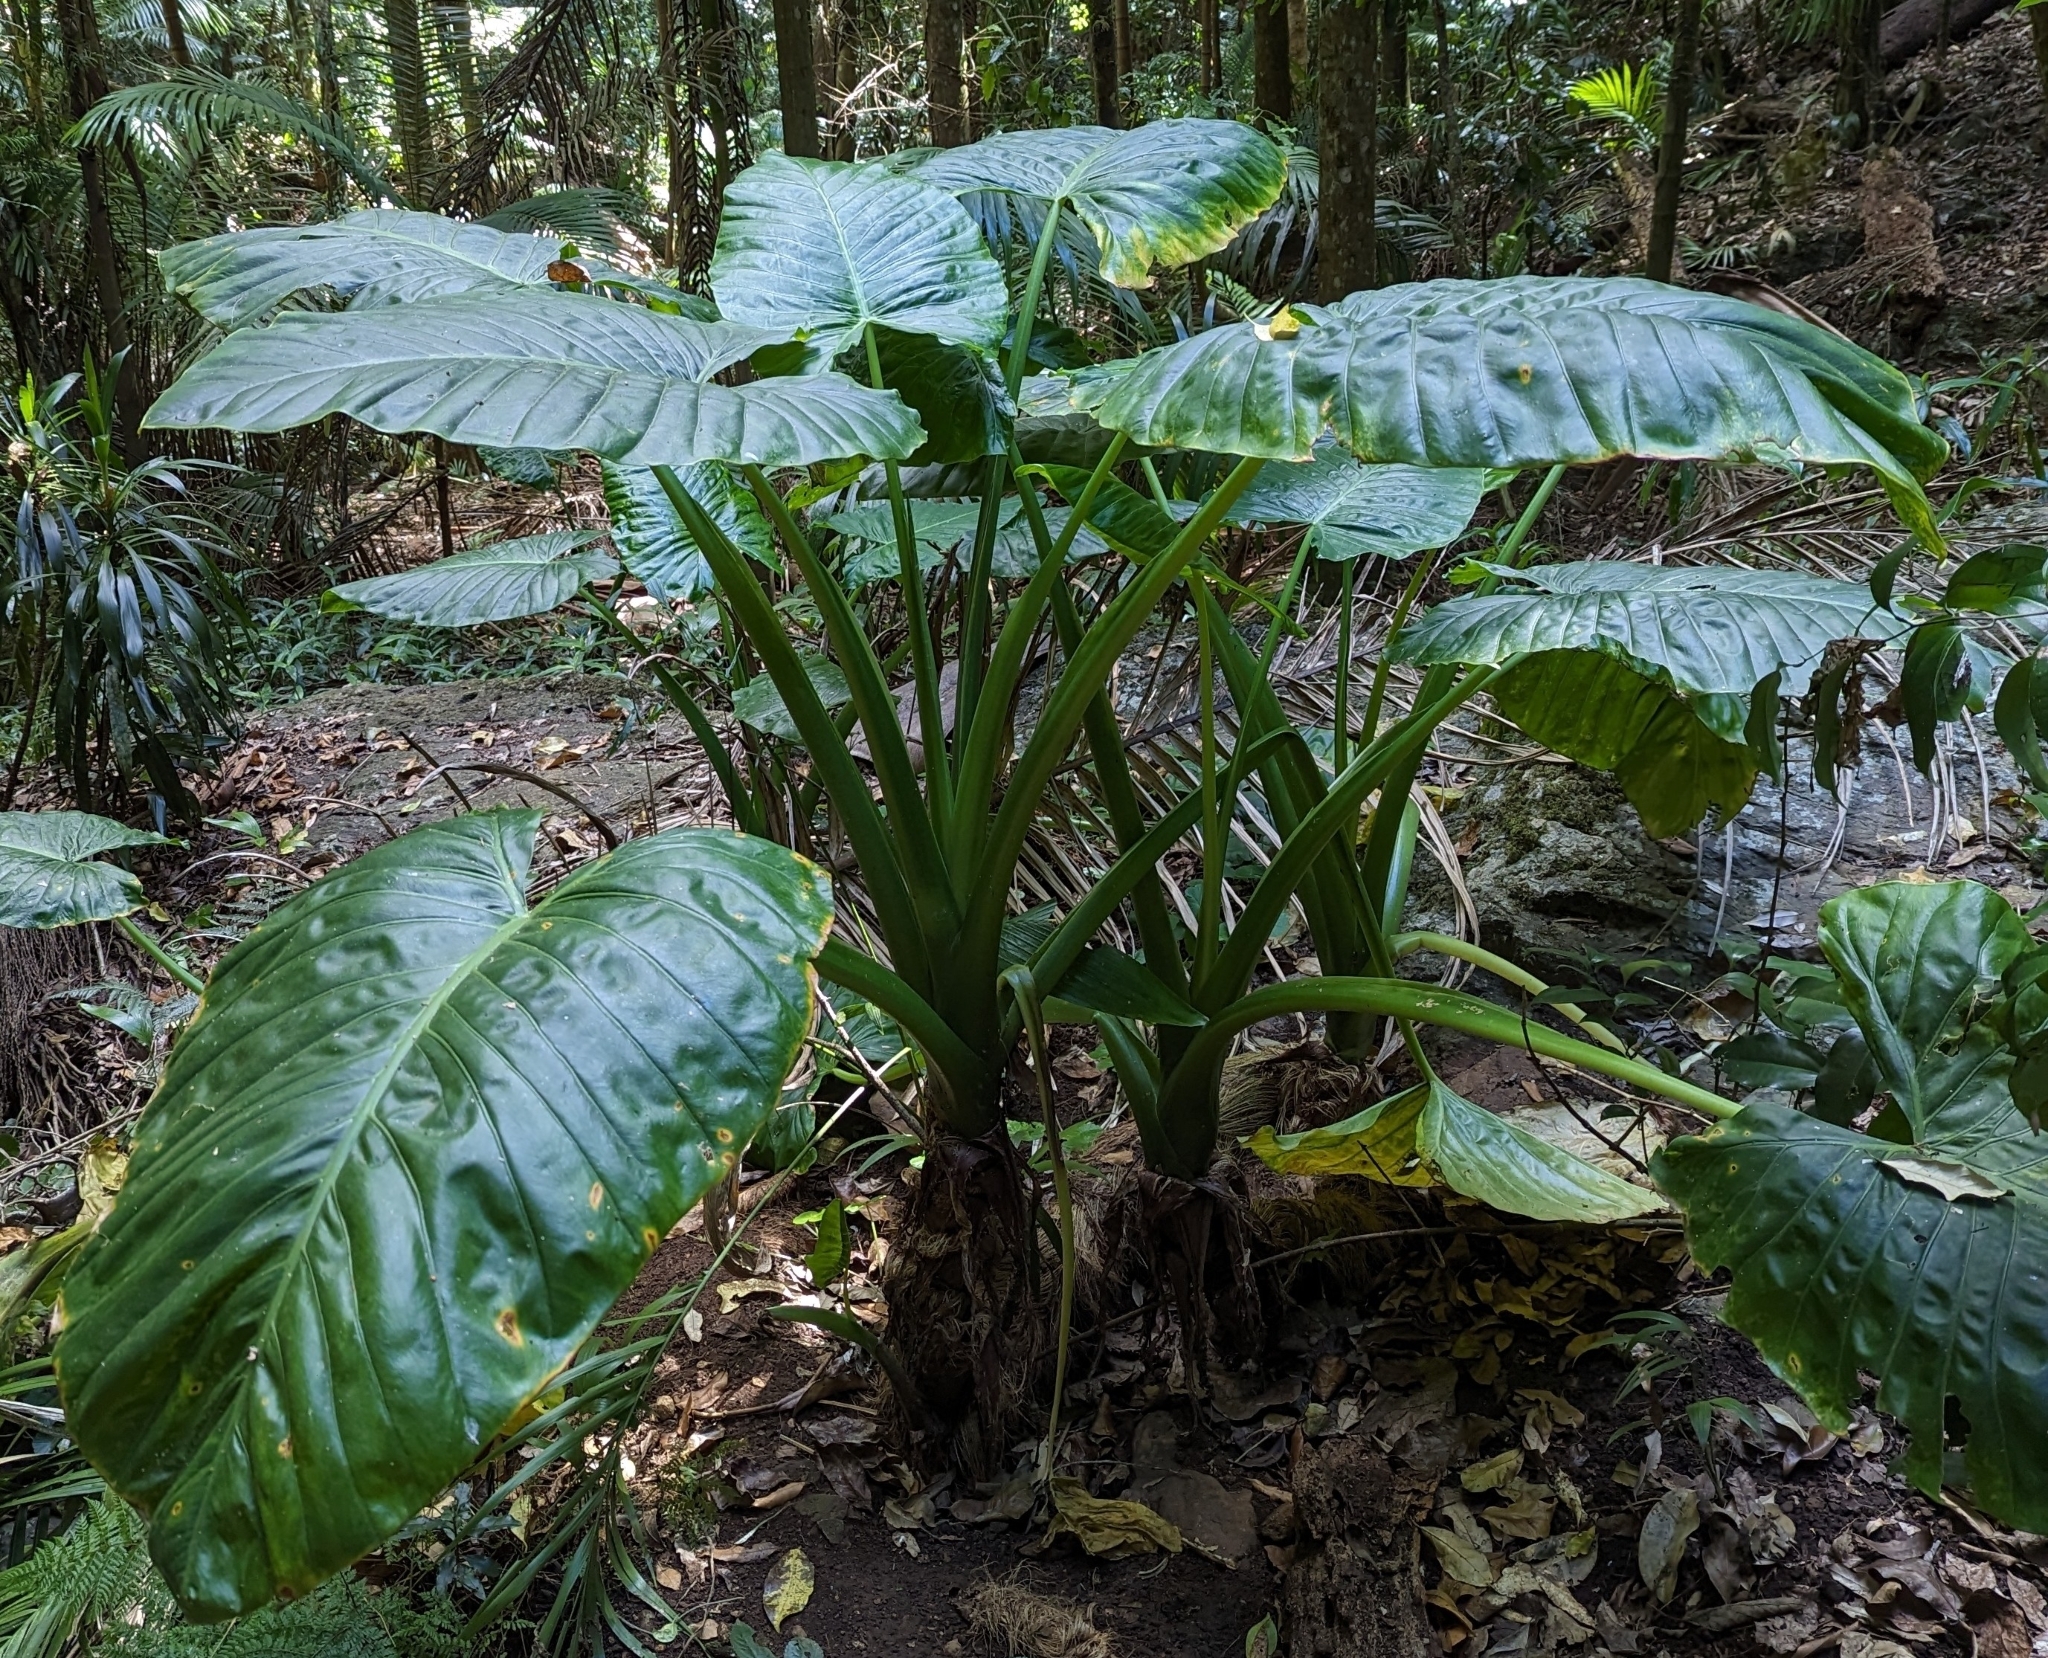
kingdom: Plantae
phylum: Tracheophyta
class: Liliopsida
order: Alismatales
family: Araceae
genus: Alocasia
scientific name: Alocasia brisbanensis
